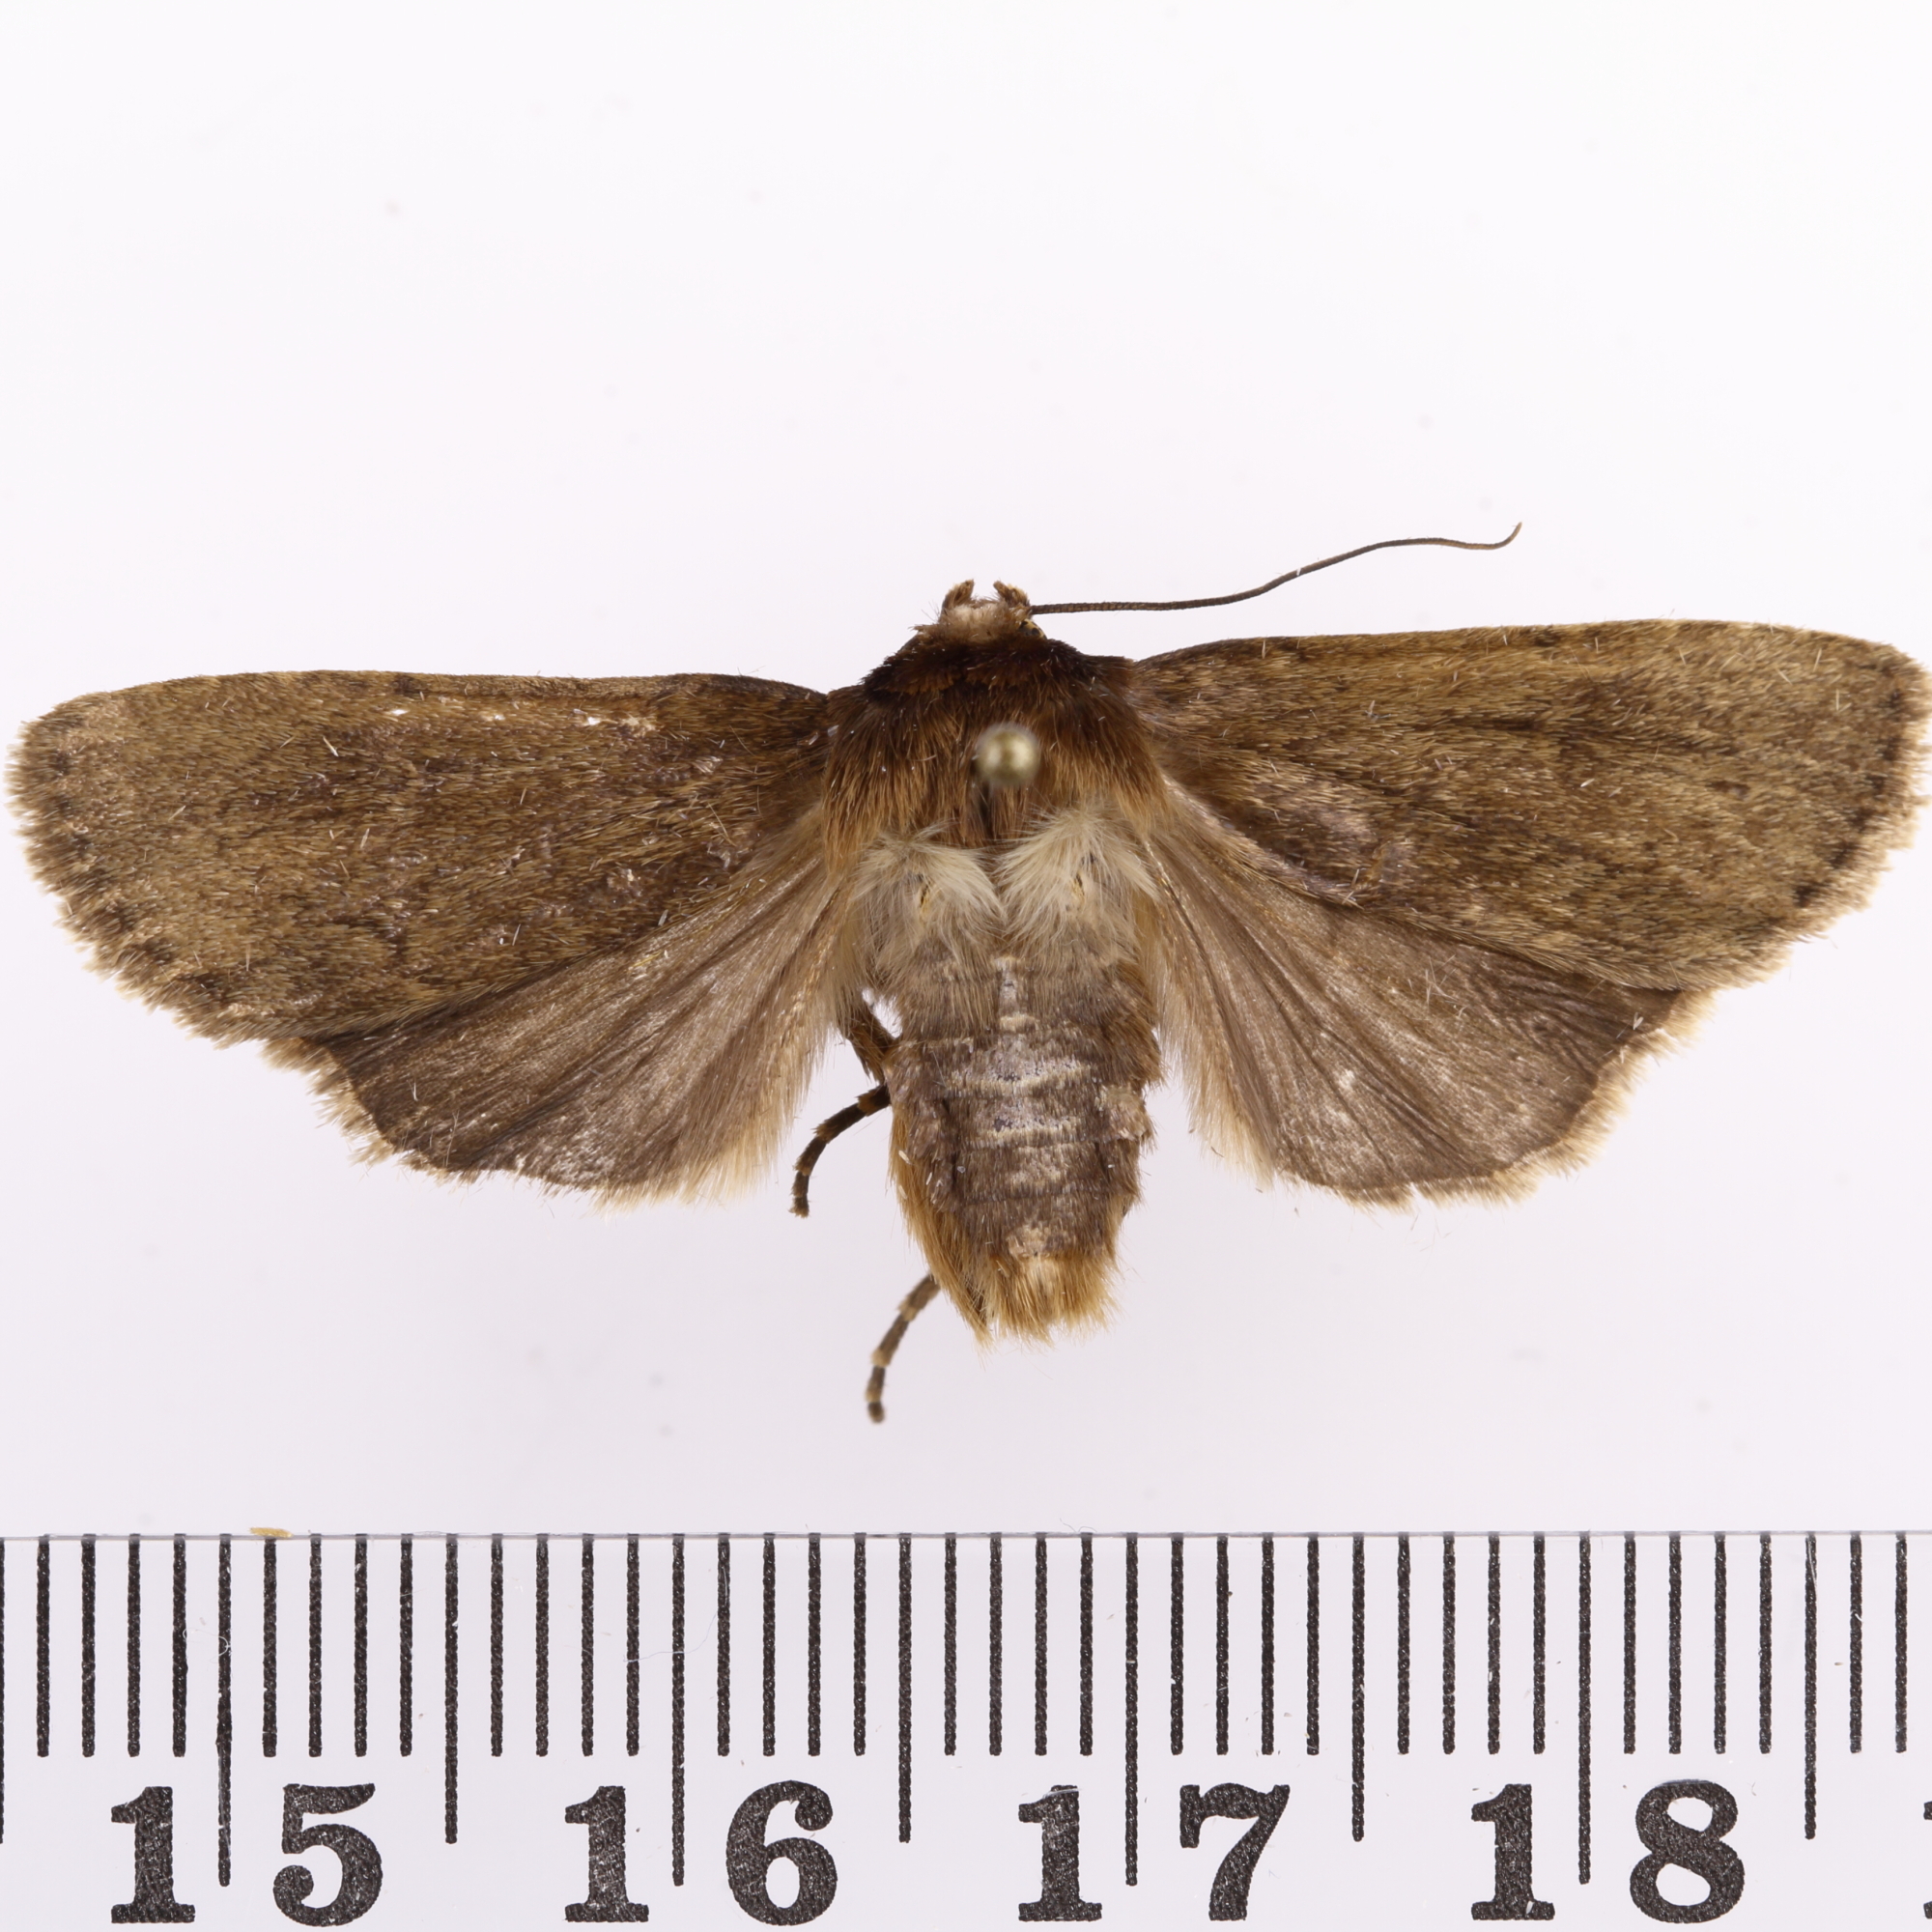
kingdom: Animalia
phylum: Arthropoda
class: Insecta
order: Lepidoptera
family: Noctuidae
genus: Bityla
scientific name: Bityla defigurata
